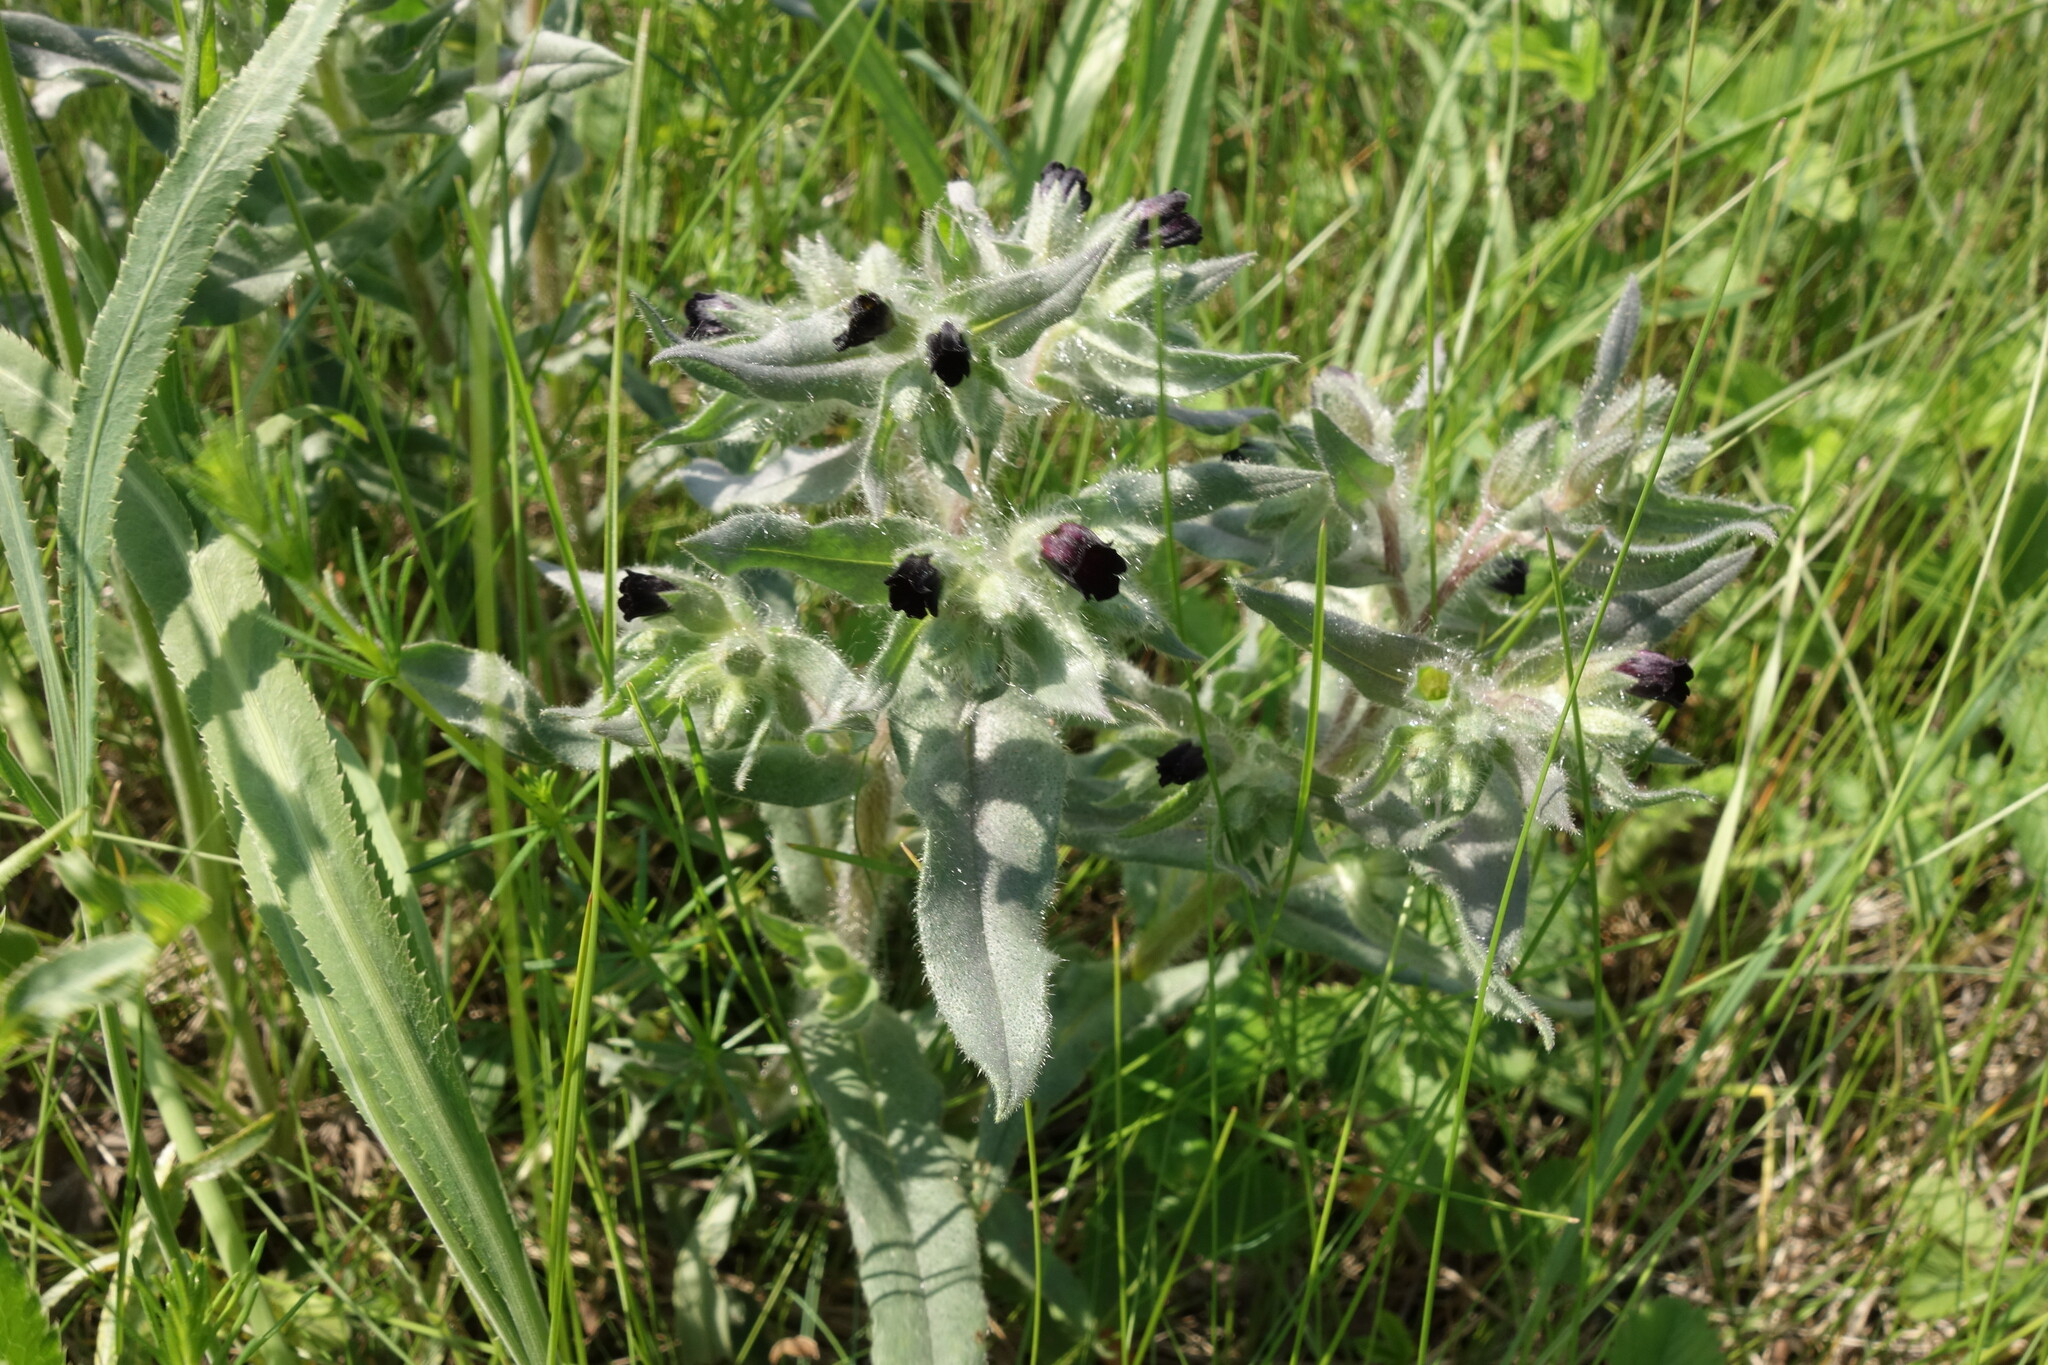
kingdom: Plantae
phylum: Tracheophyta
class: Magnoliopsida
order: Boraginales
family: Boraginaceae
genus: Nonea
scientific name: Nonea pulla
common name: Brown nonea
